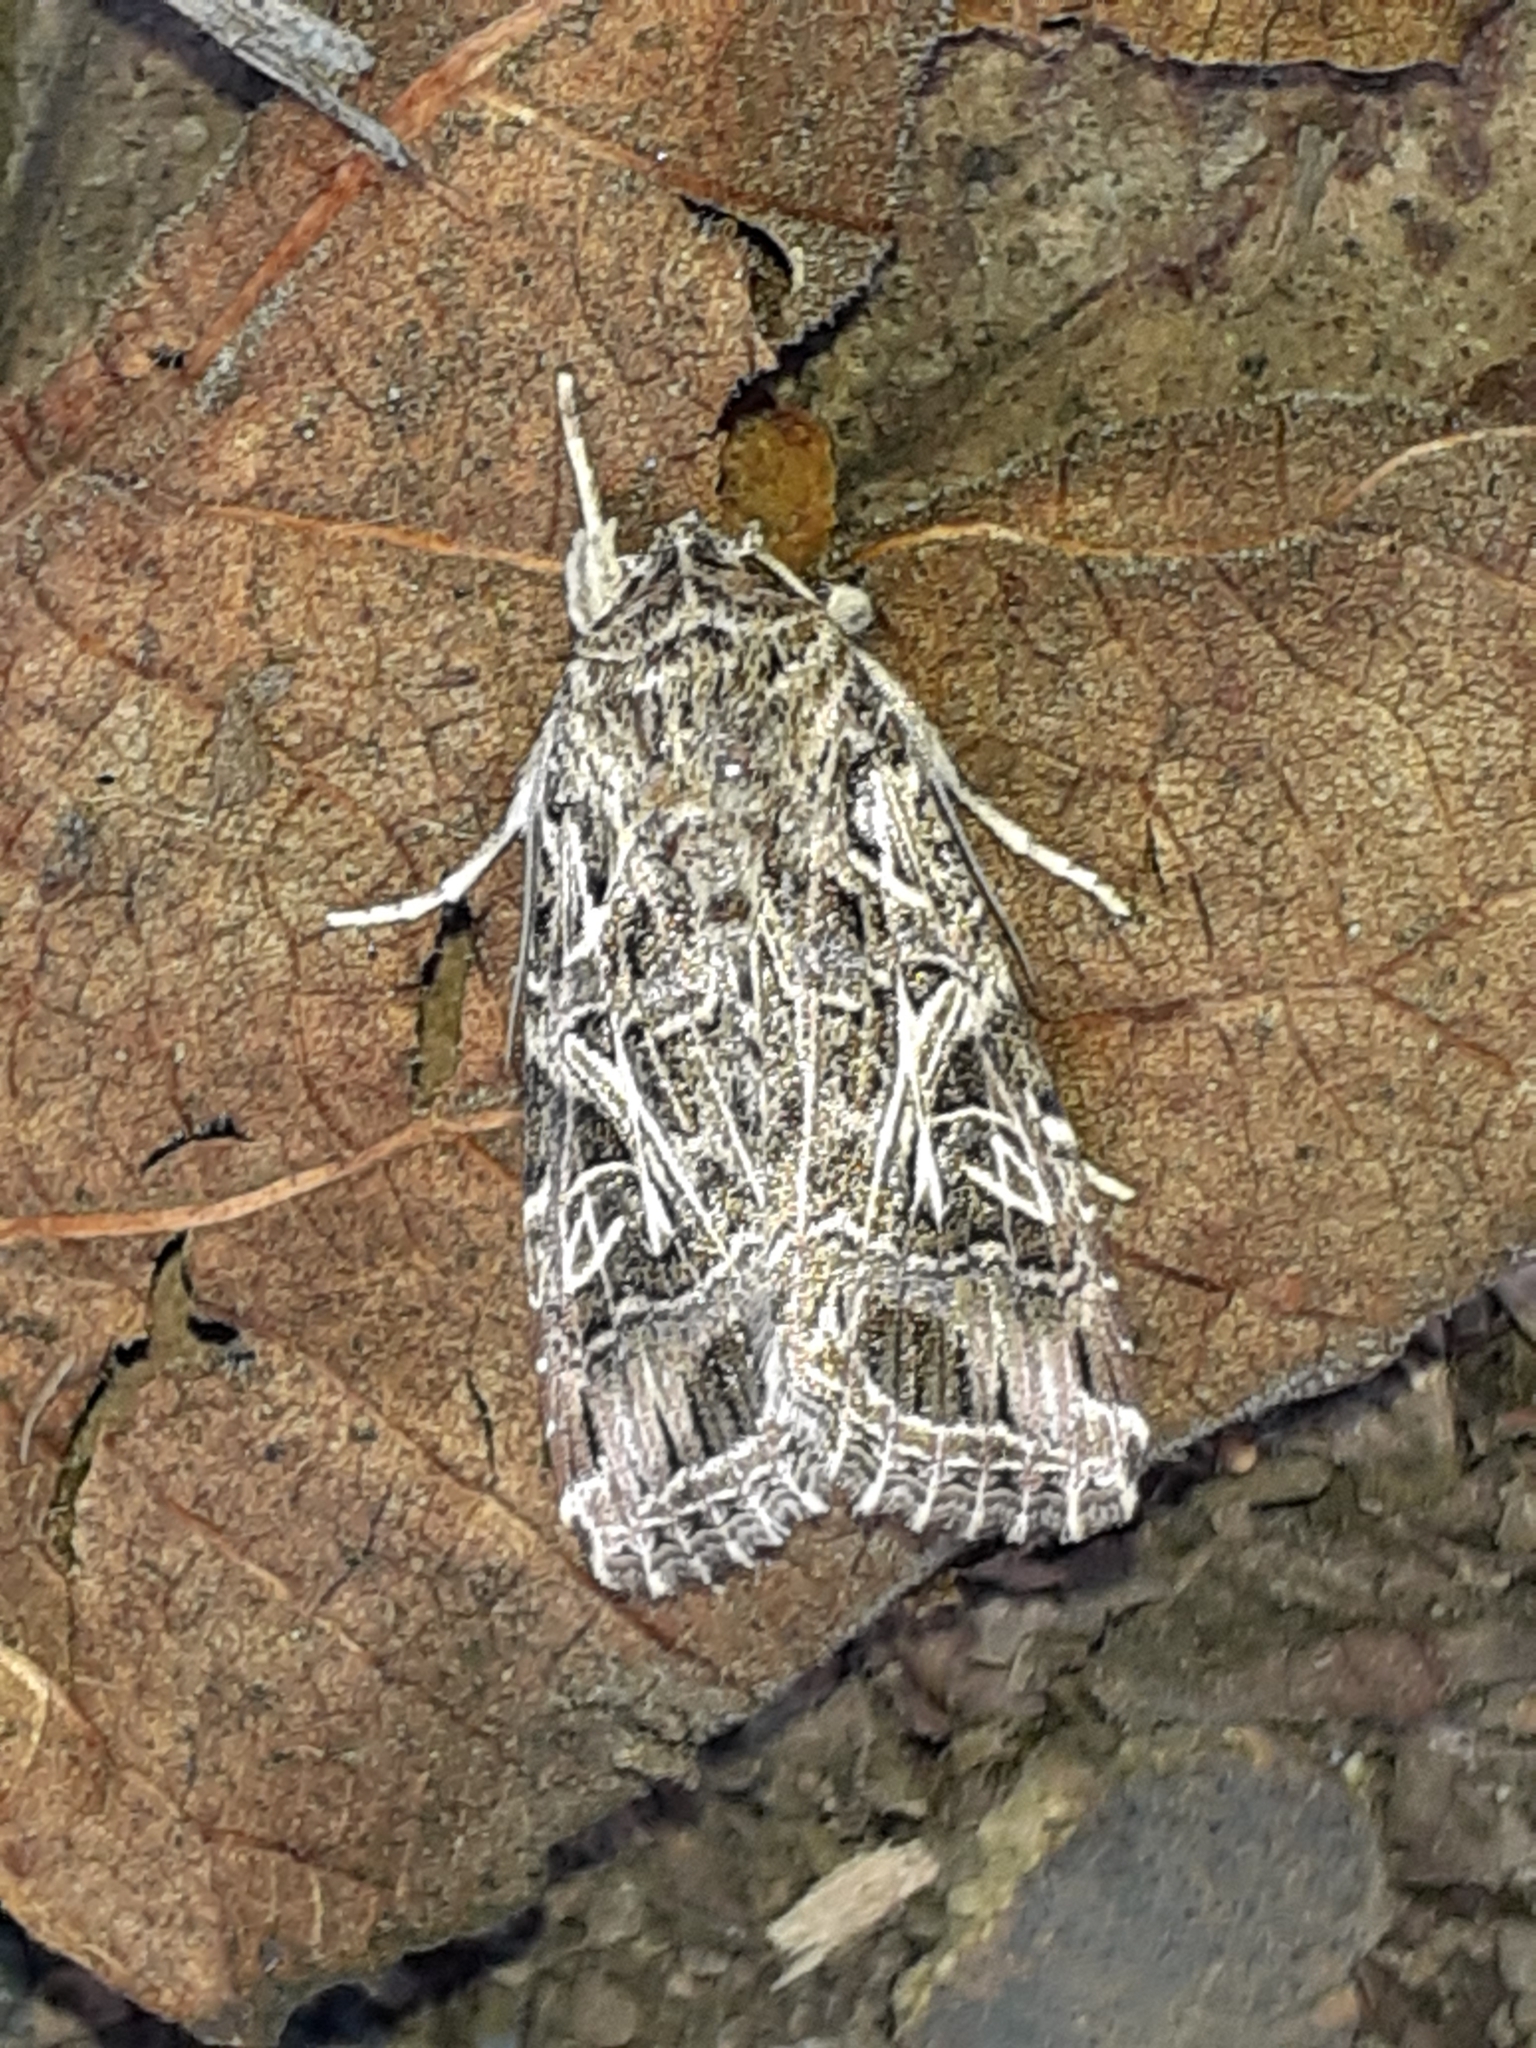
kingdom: Animalia
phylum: Arthropoda
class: Insecta
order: Lepidoptera
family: Noctuidae
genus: Spodoptera
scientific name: Spodoptera littoralis
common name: Egyptian cotton leafworm
